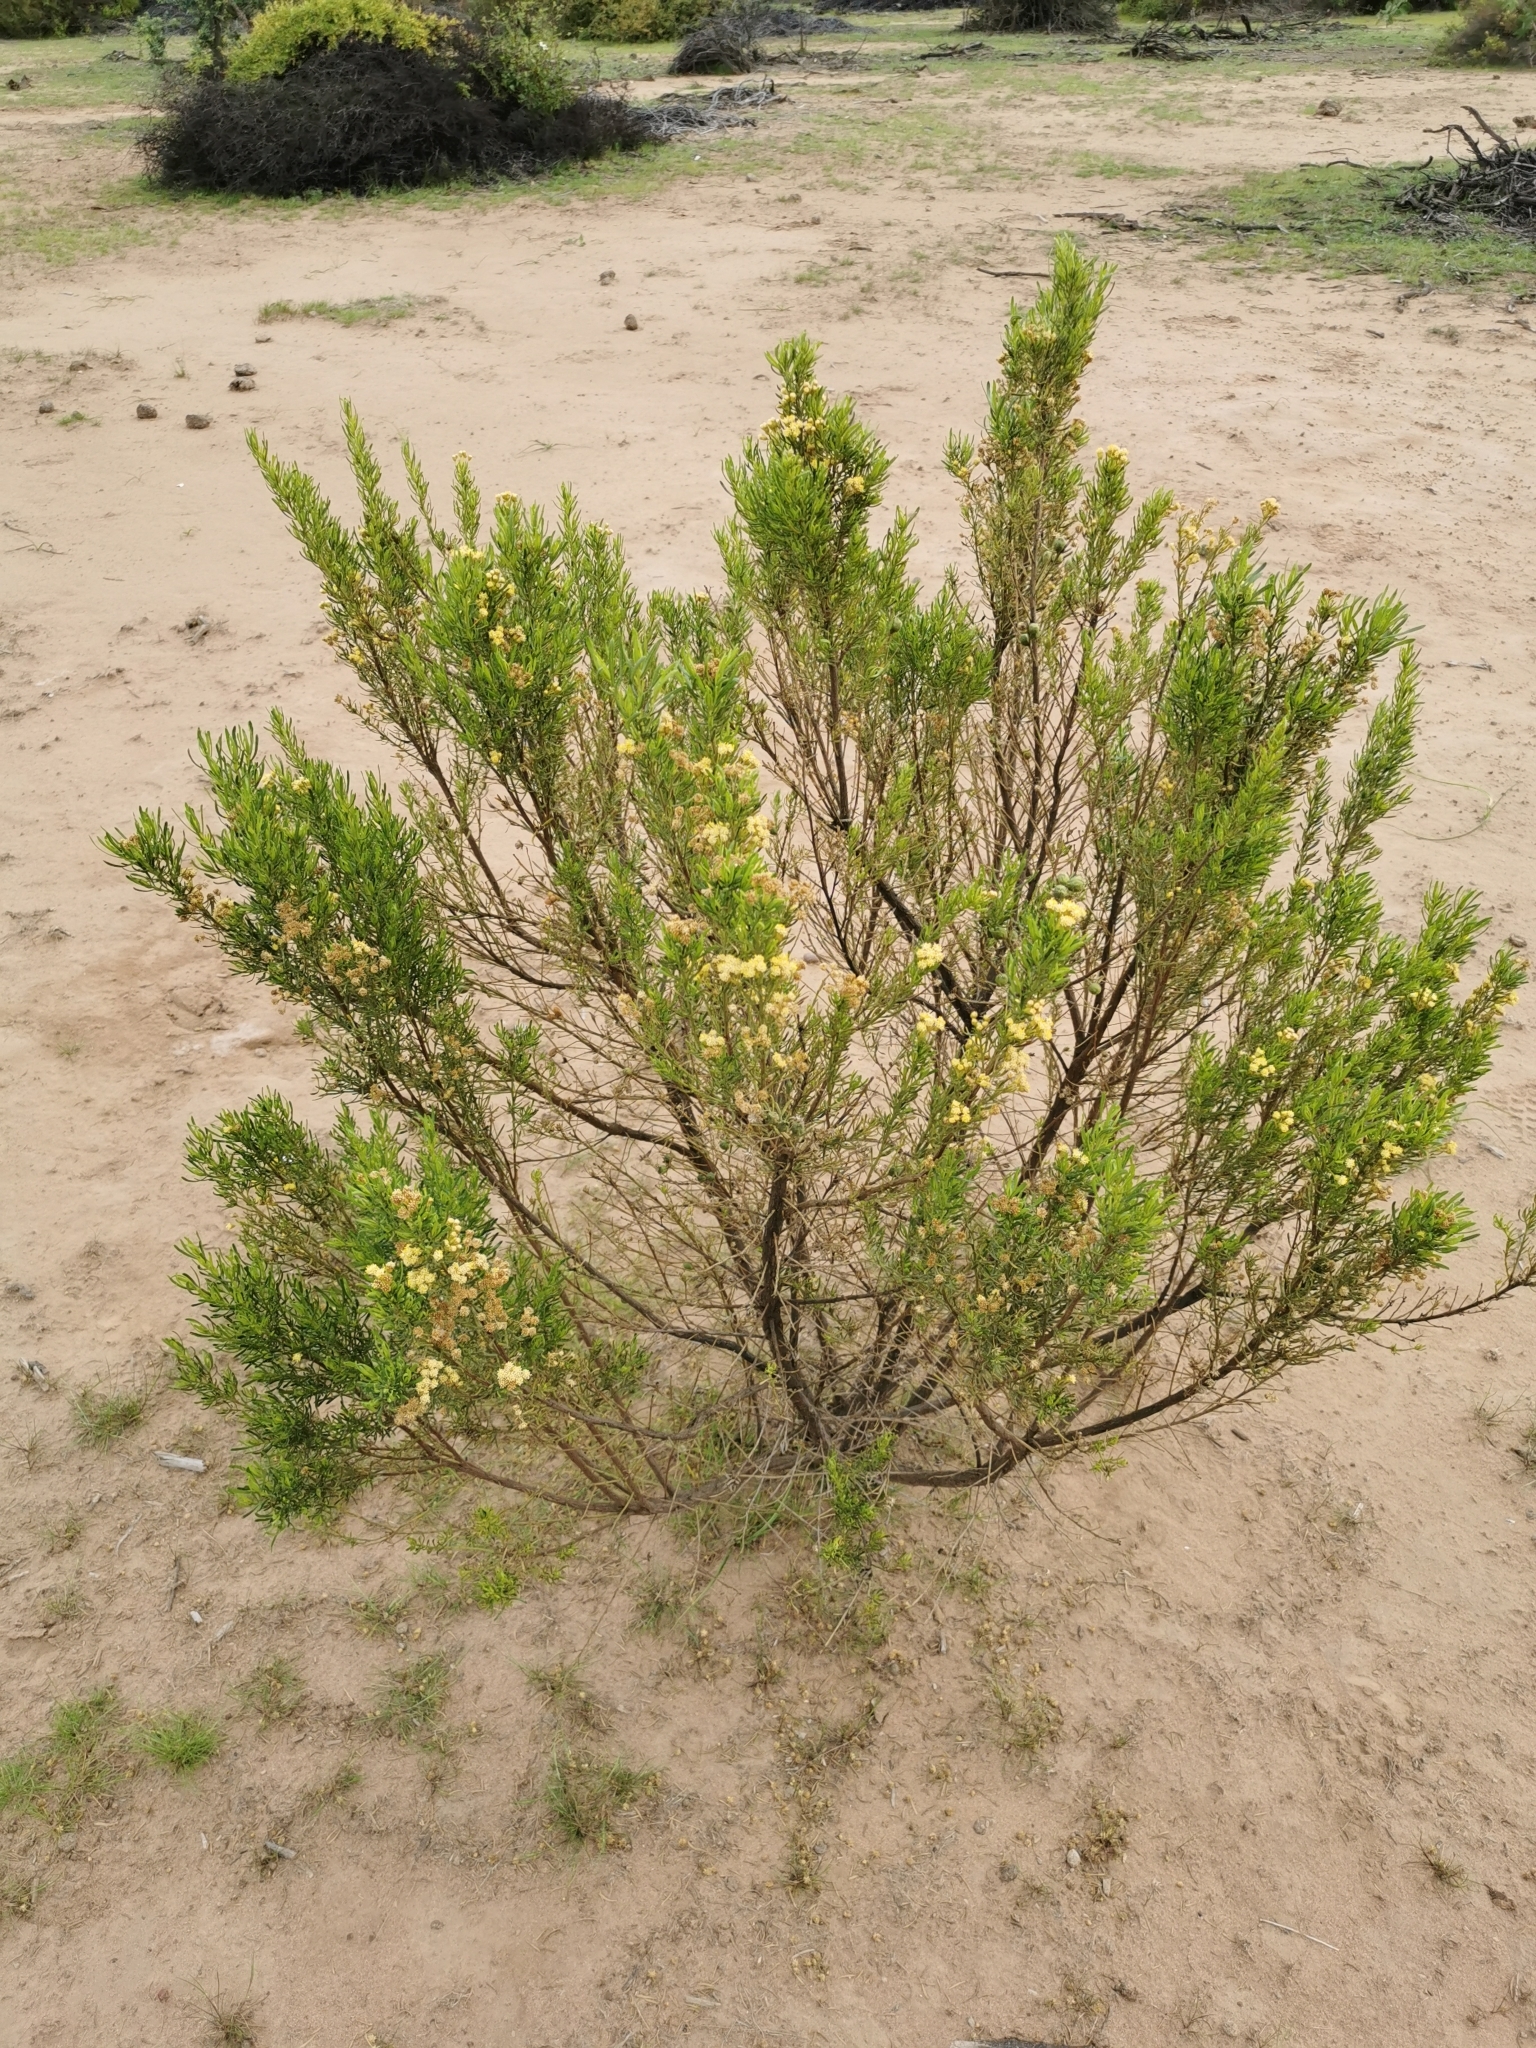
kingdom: Plantae
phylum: Tracheophyta
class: Magnoliopsida
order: Asterales
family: Asteraceae
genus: Baccharis
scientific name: Baccharis linearis
